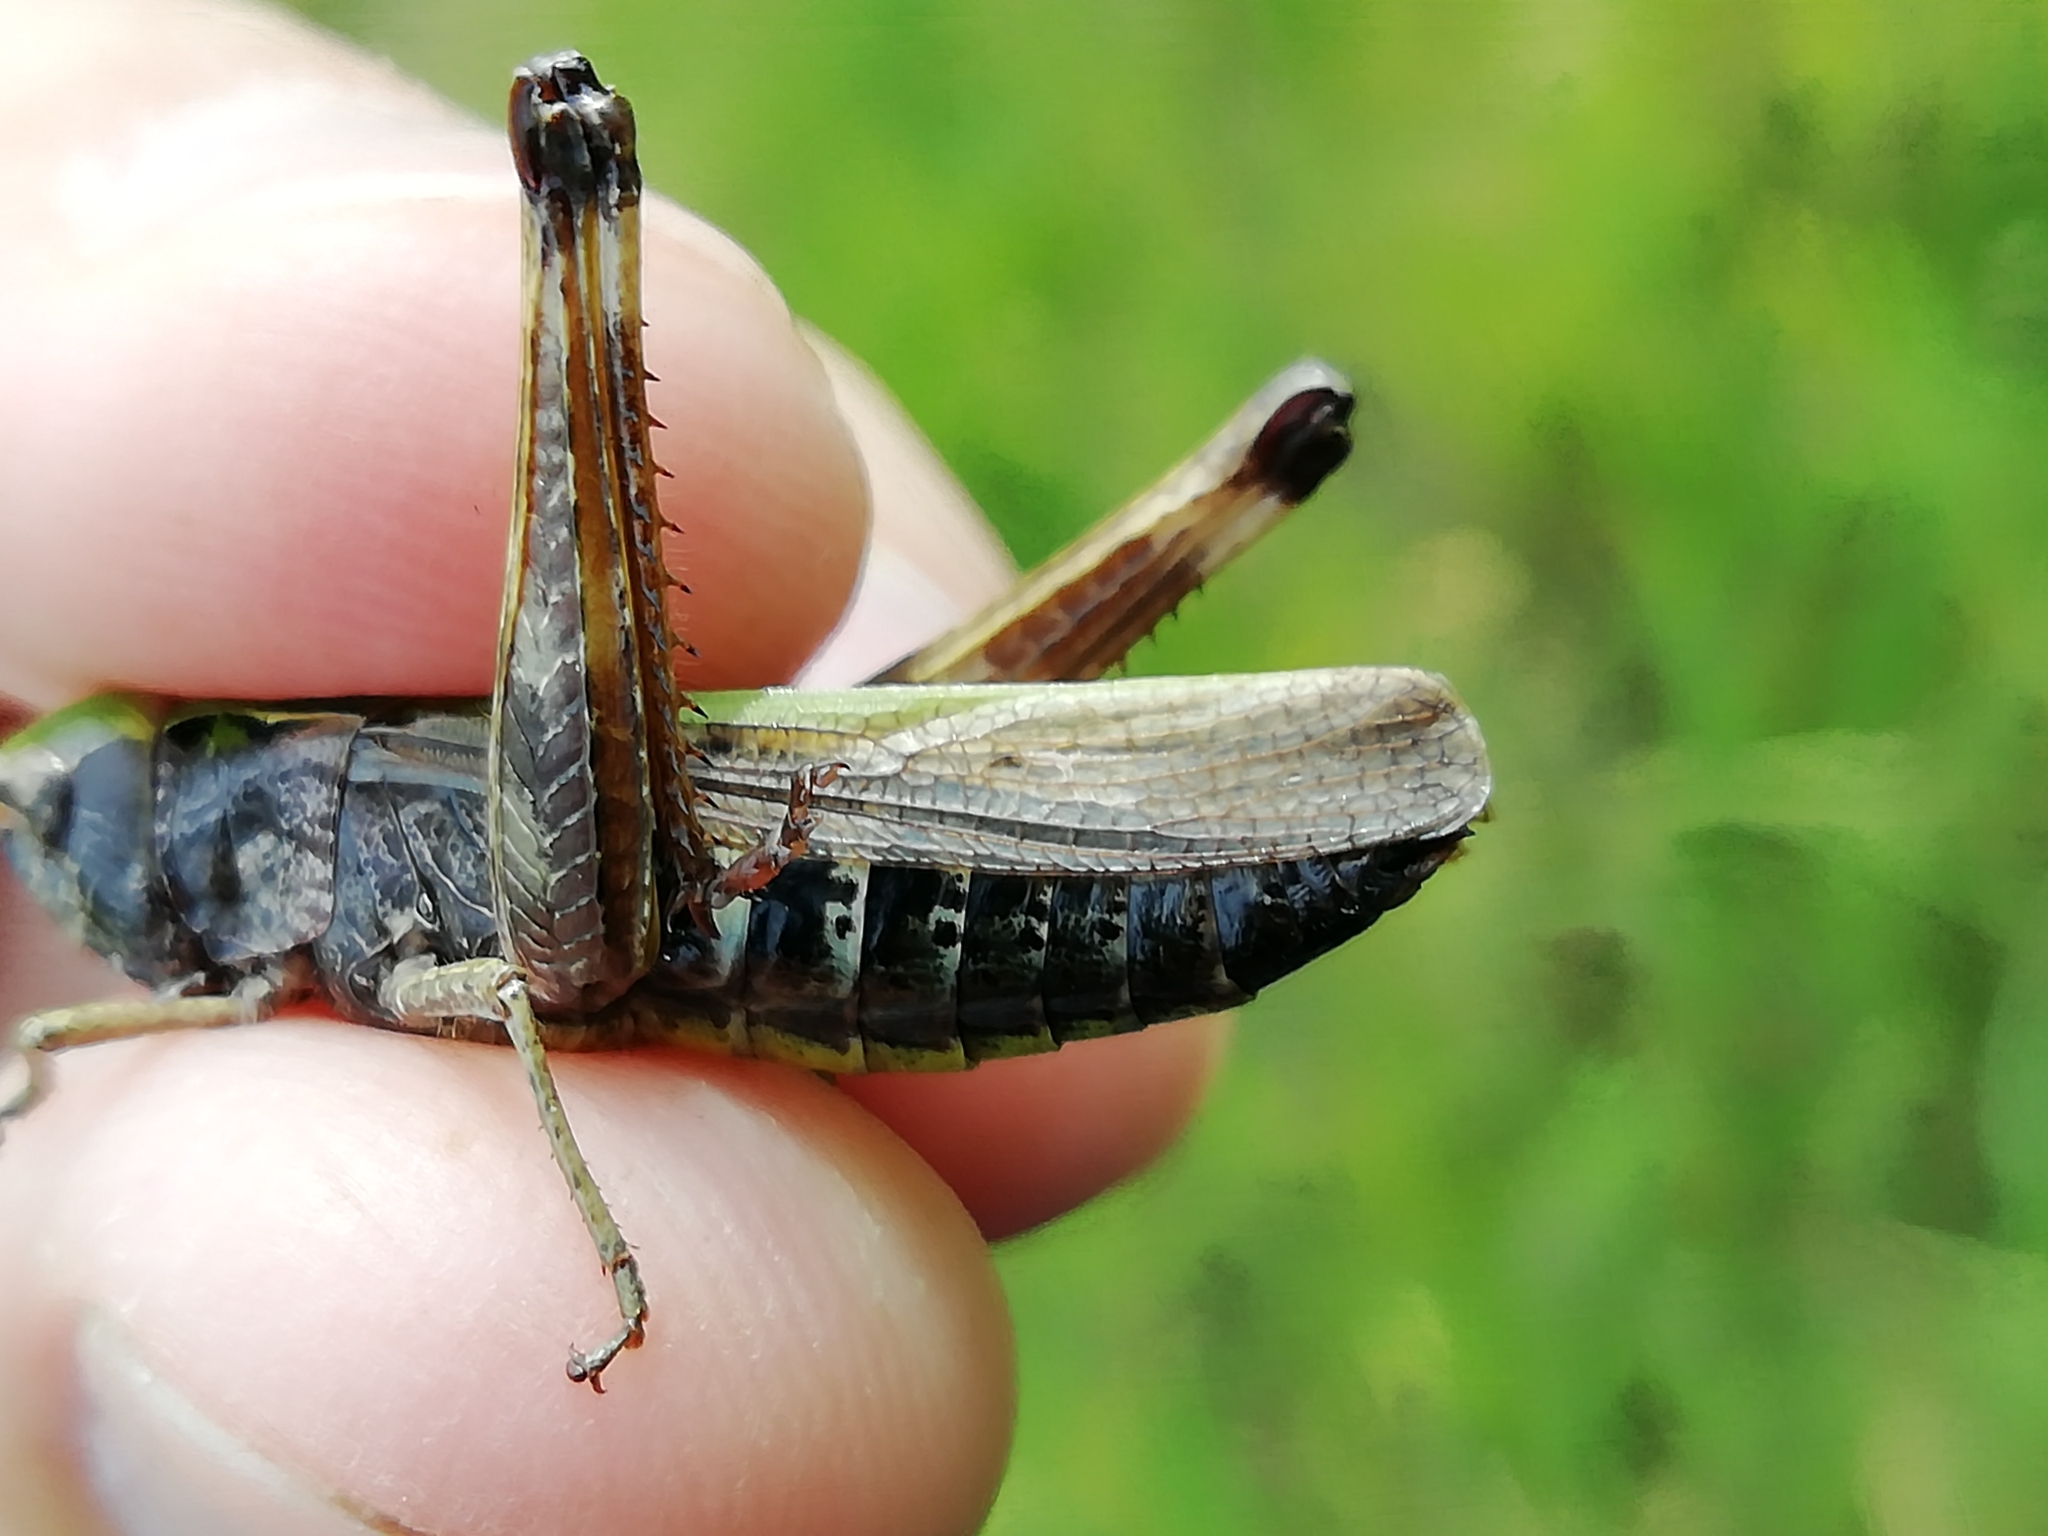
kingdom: Animalia
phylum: Arthropoda
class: Insecta
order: Orthoptera
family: Acrididae
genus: Omocestus
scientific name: Omocestus viridulus
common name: Common green grasshopper
